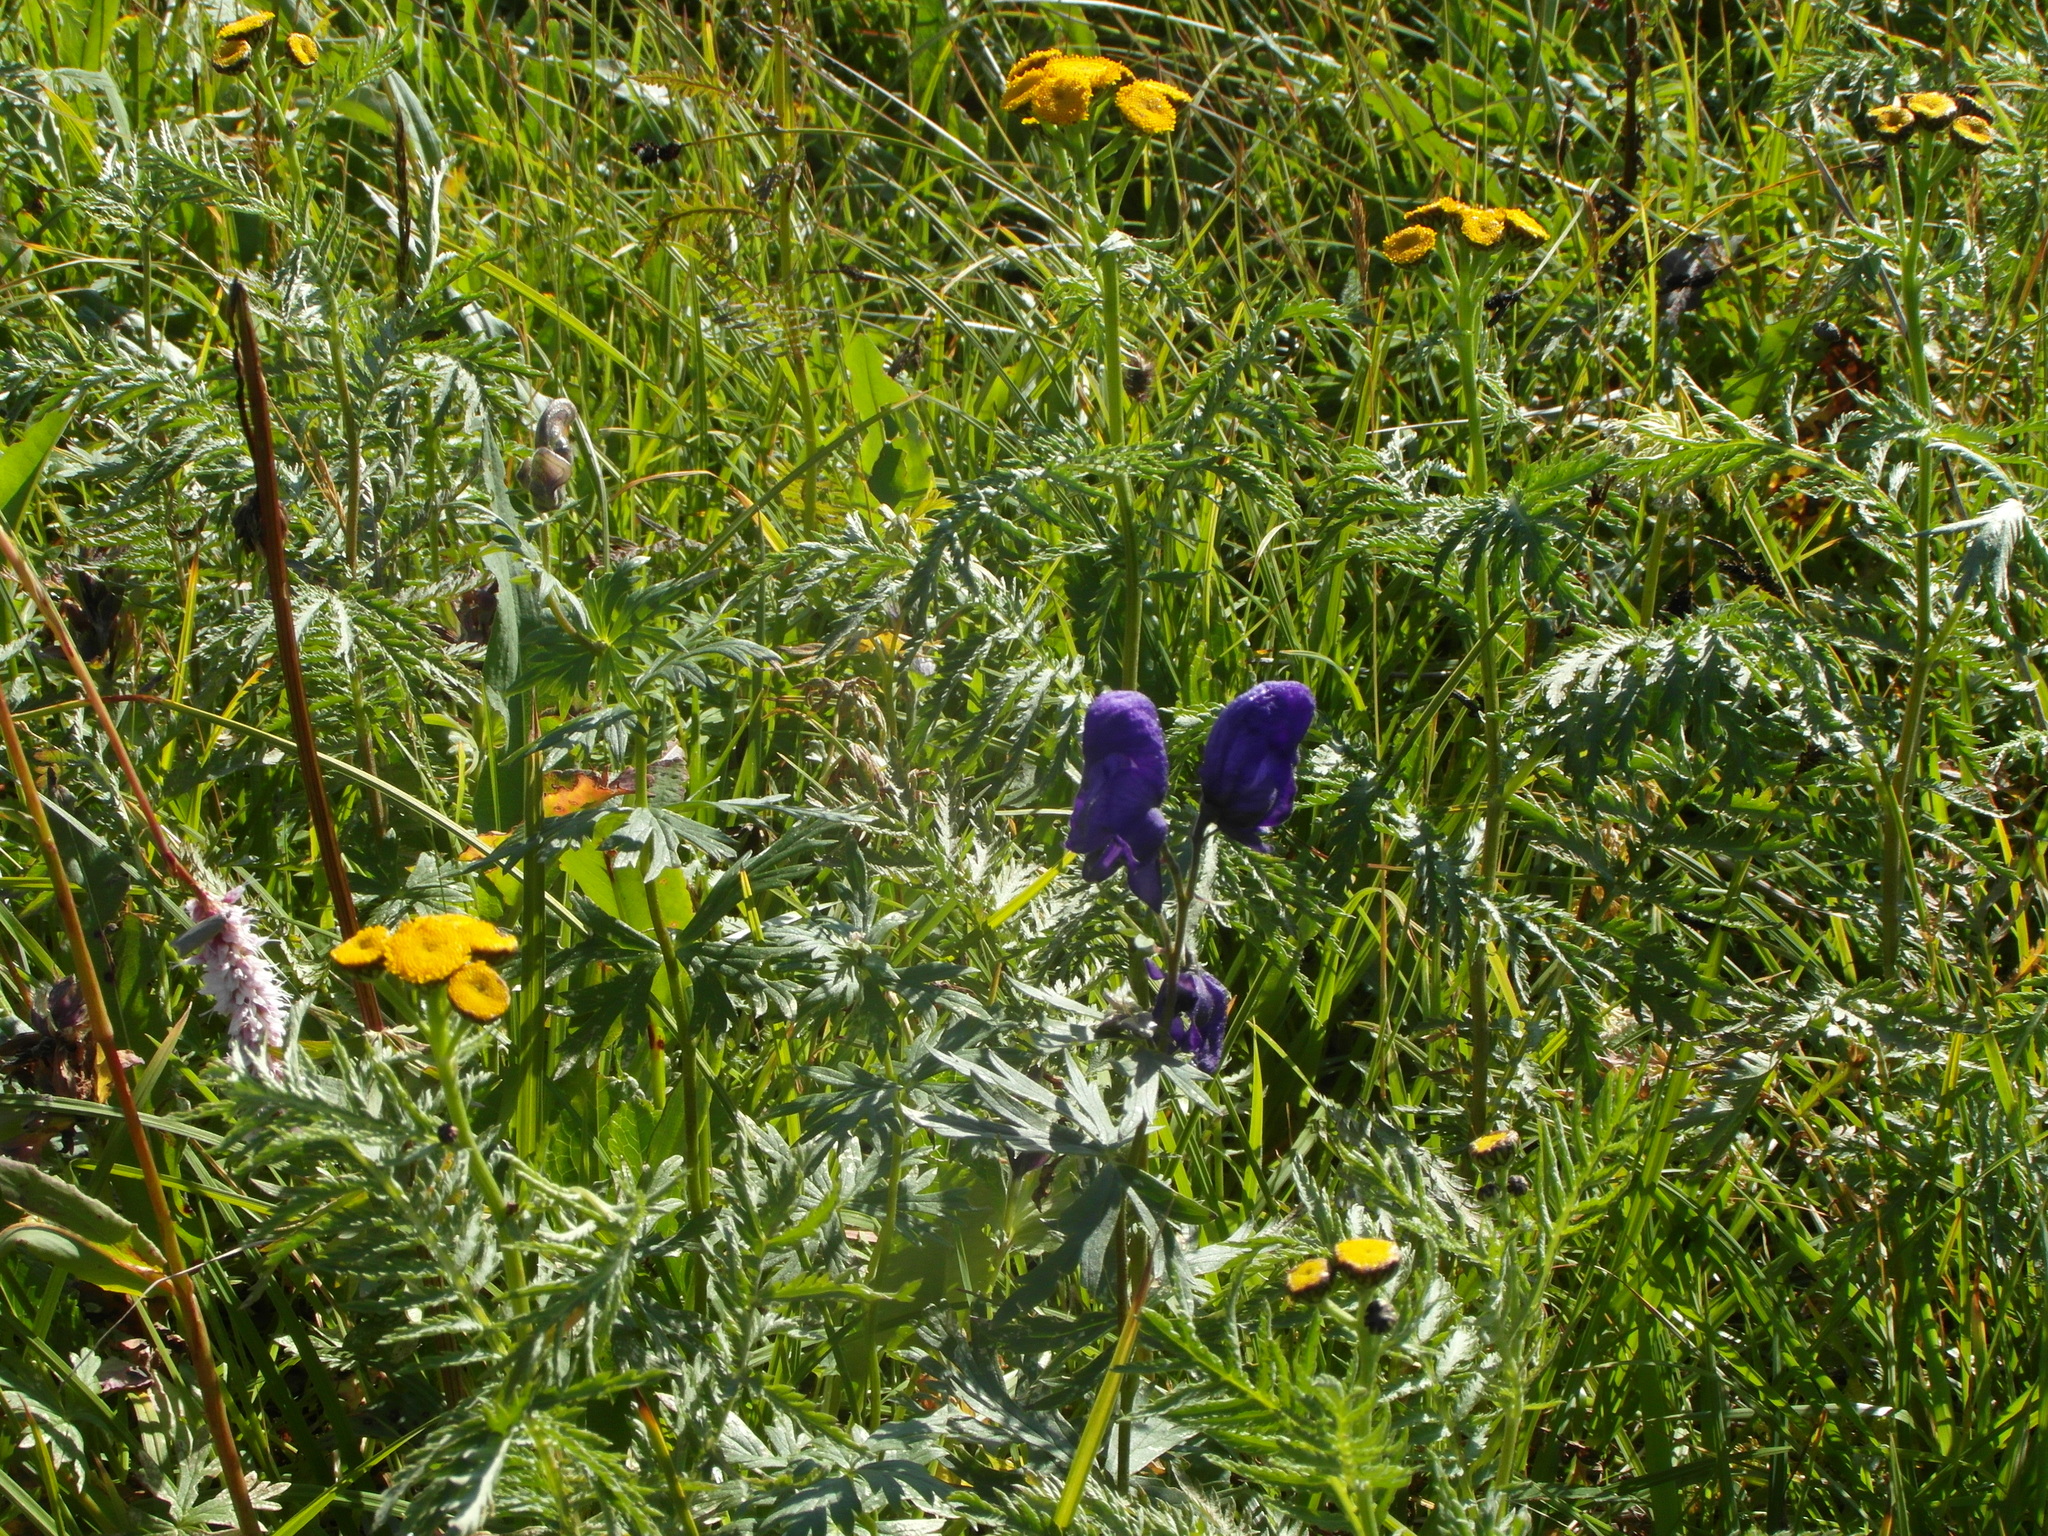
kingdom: Plantae
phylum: Tracheophyta
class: Magnoliopsida
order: Asterales
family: Asteraceae
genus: Tanacetum
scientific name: Tanacetum vulgare
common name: Common tansy
